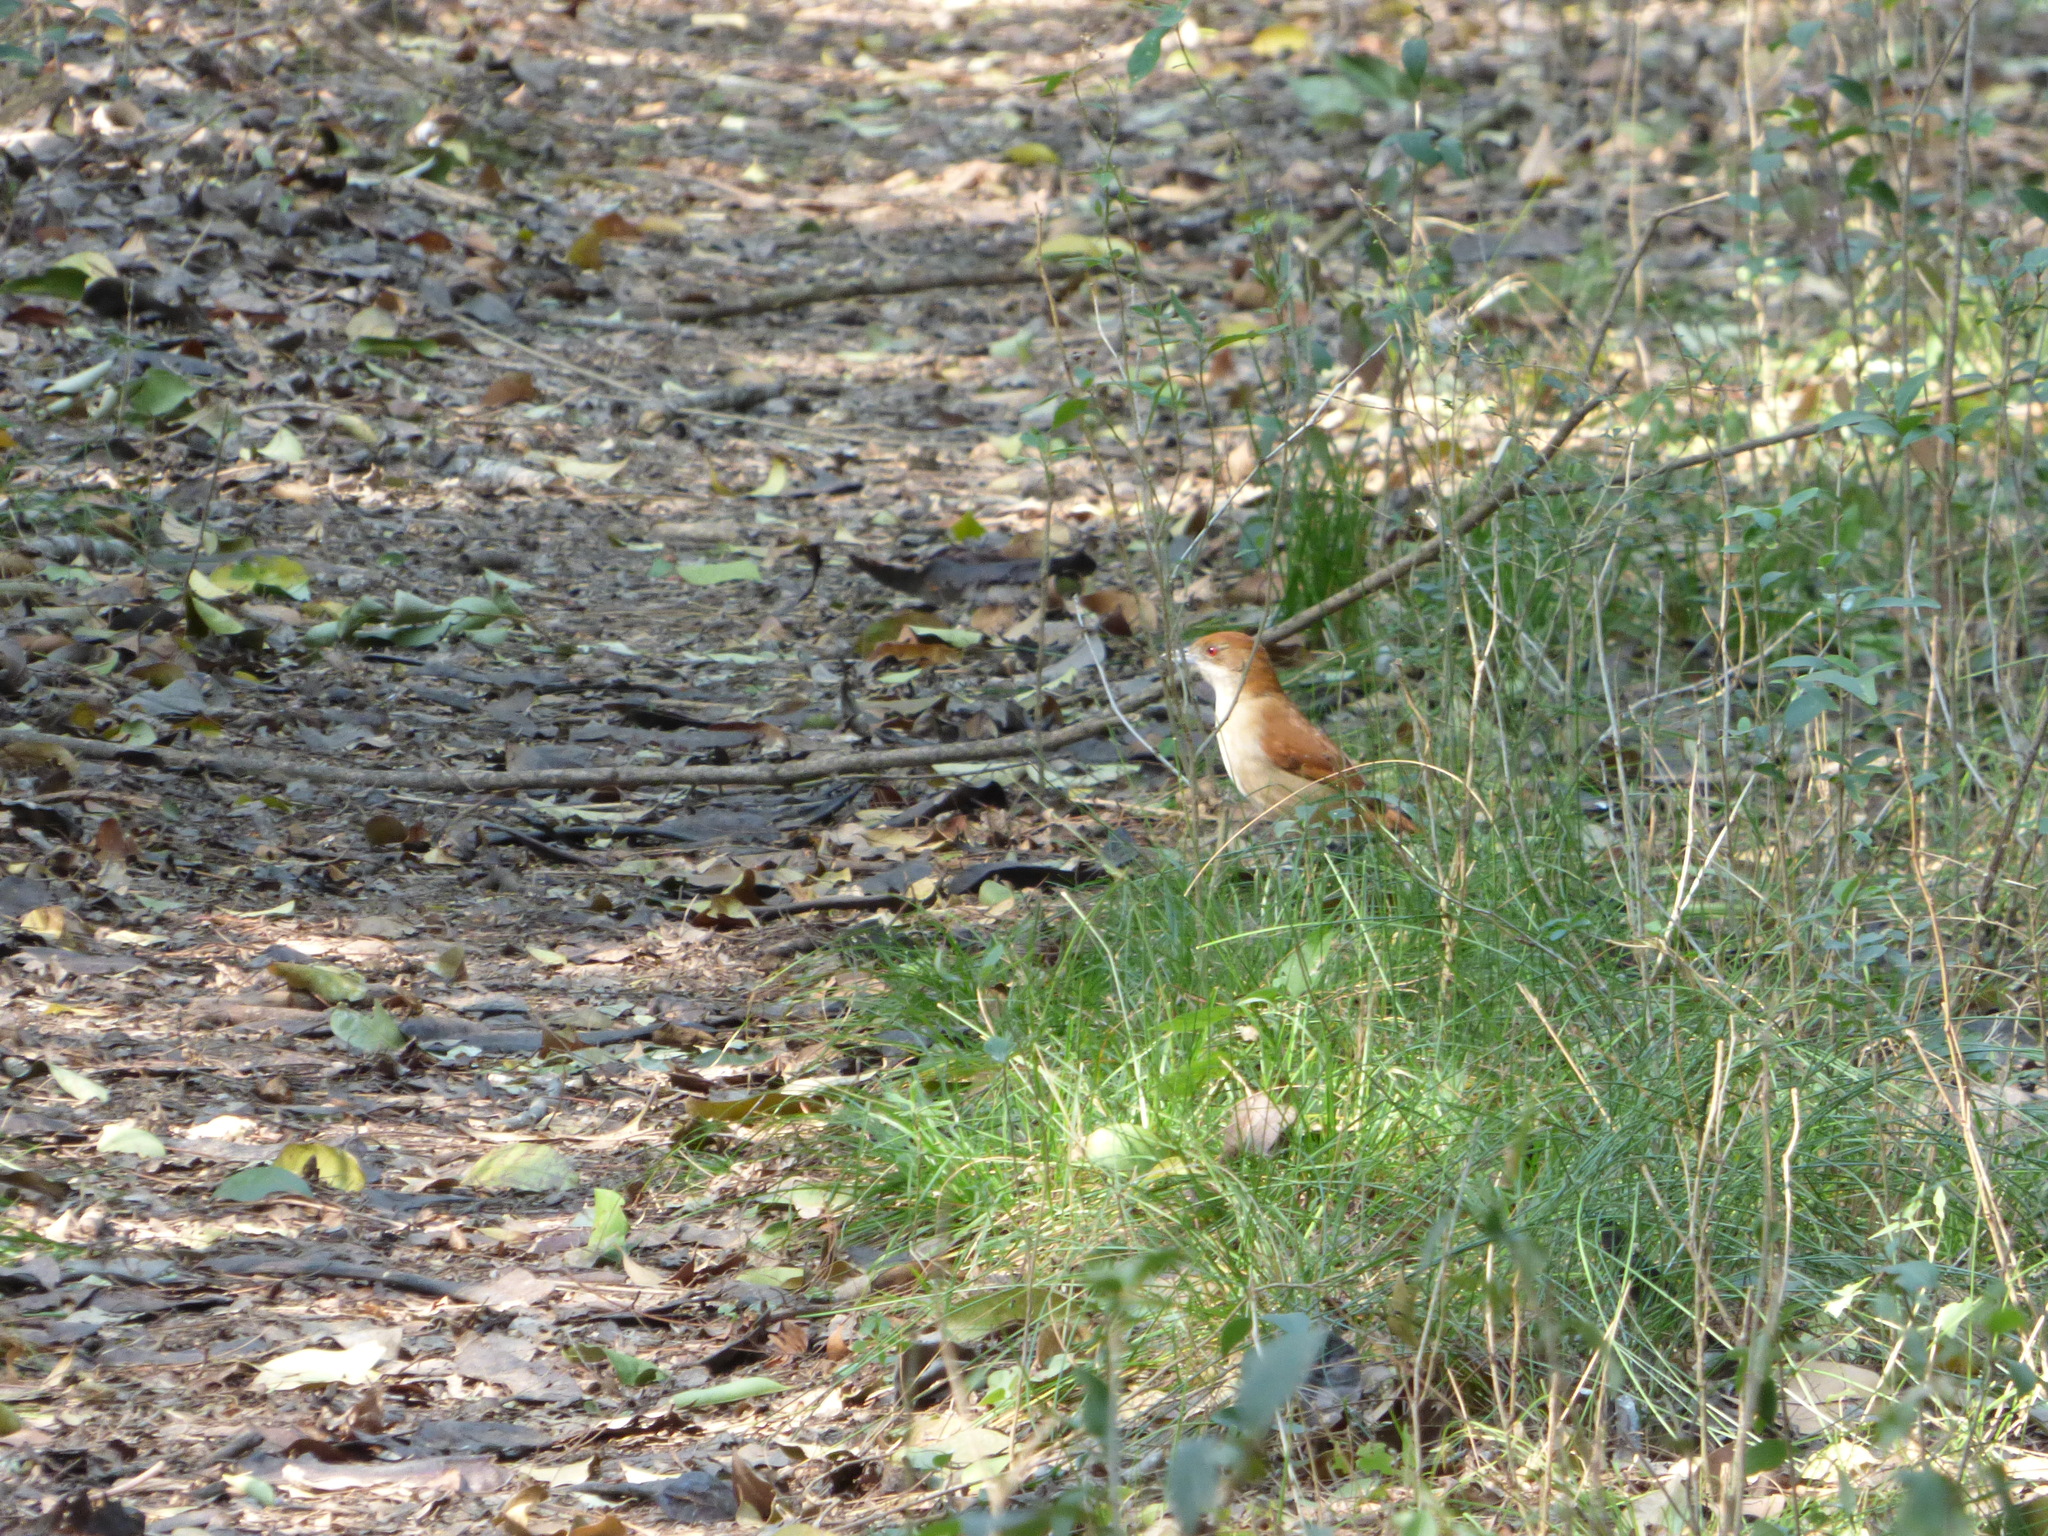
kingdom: Animalia
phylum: Chordata
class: Aves
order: Passeriformes
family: Thamnophilidae
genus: Taraba
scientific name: Taraba major
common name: Great antshrike
